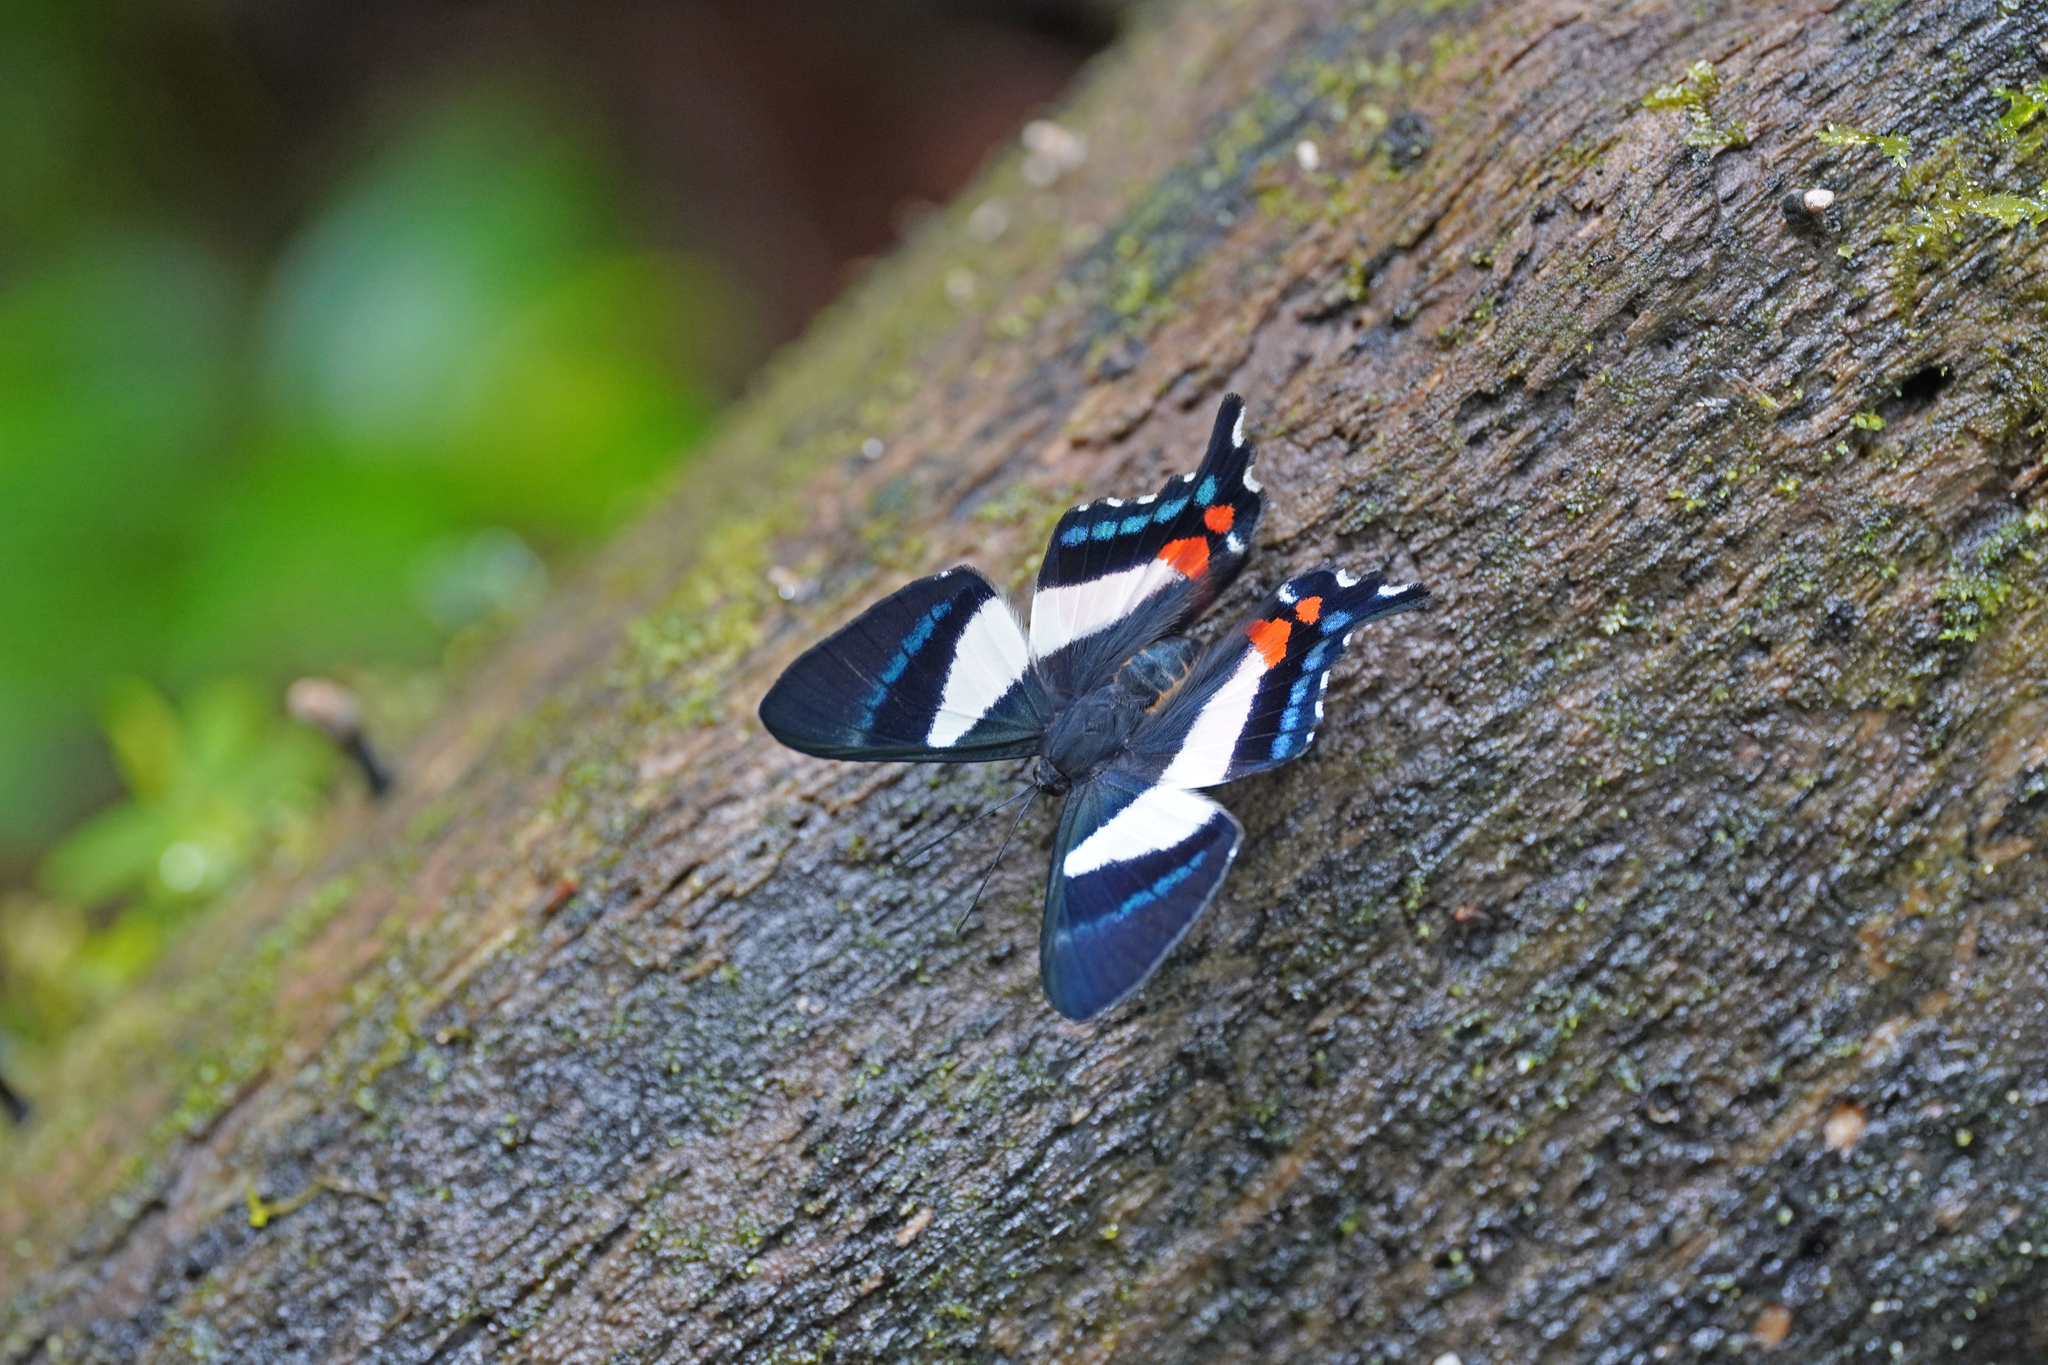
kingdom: Animalia
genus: Ancyluris
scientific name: Ancyluris formosissima
